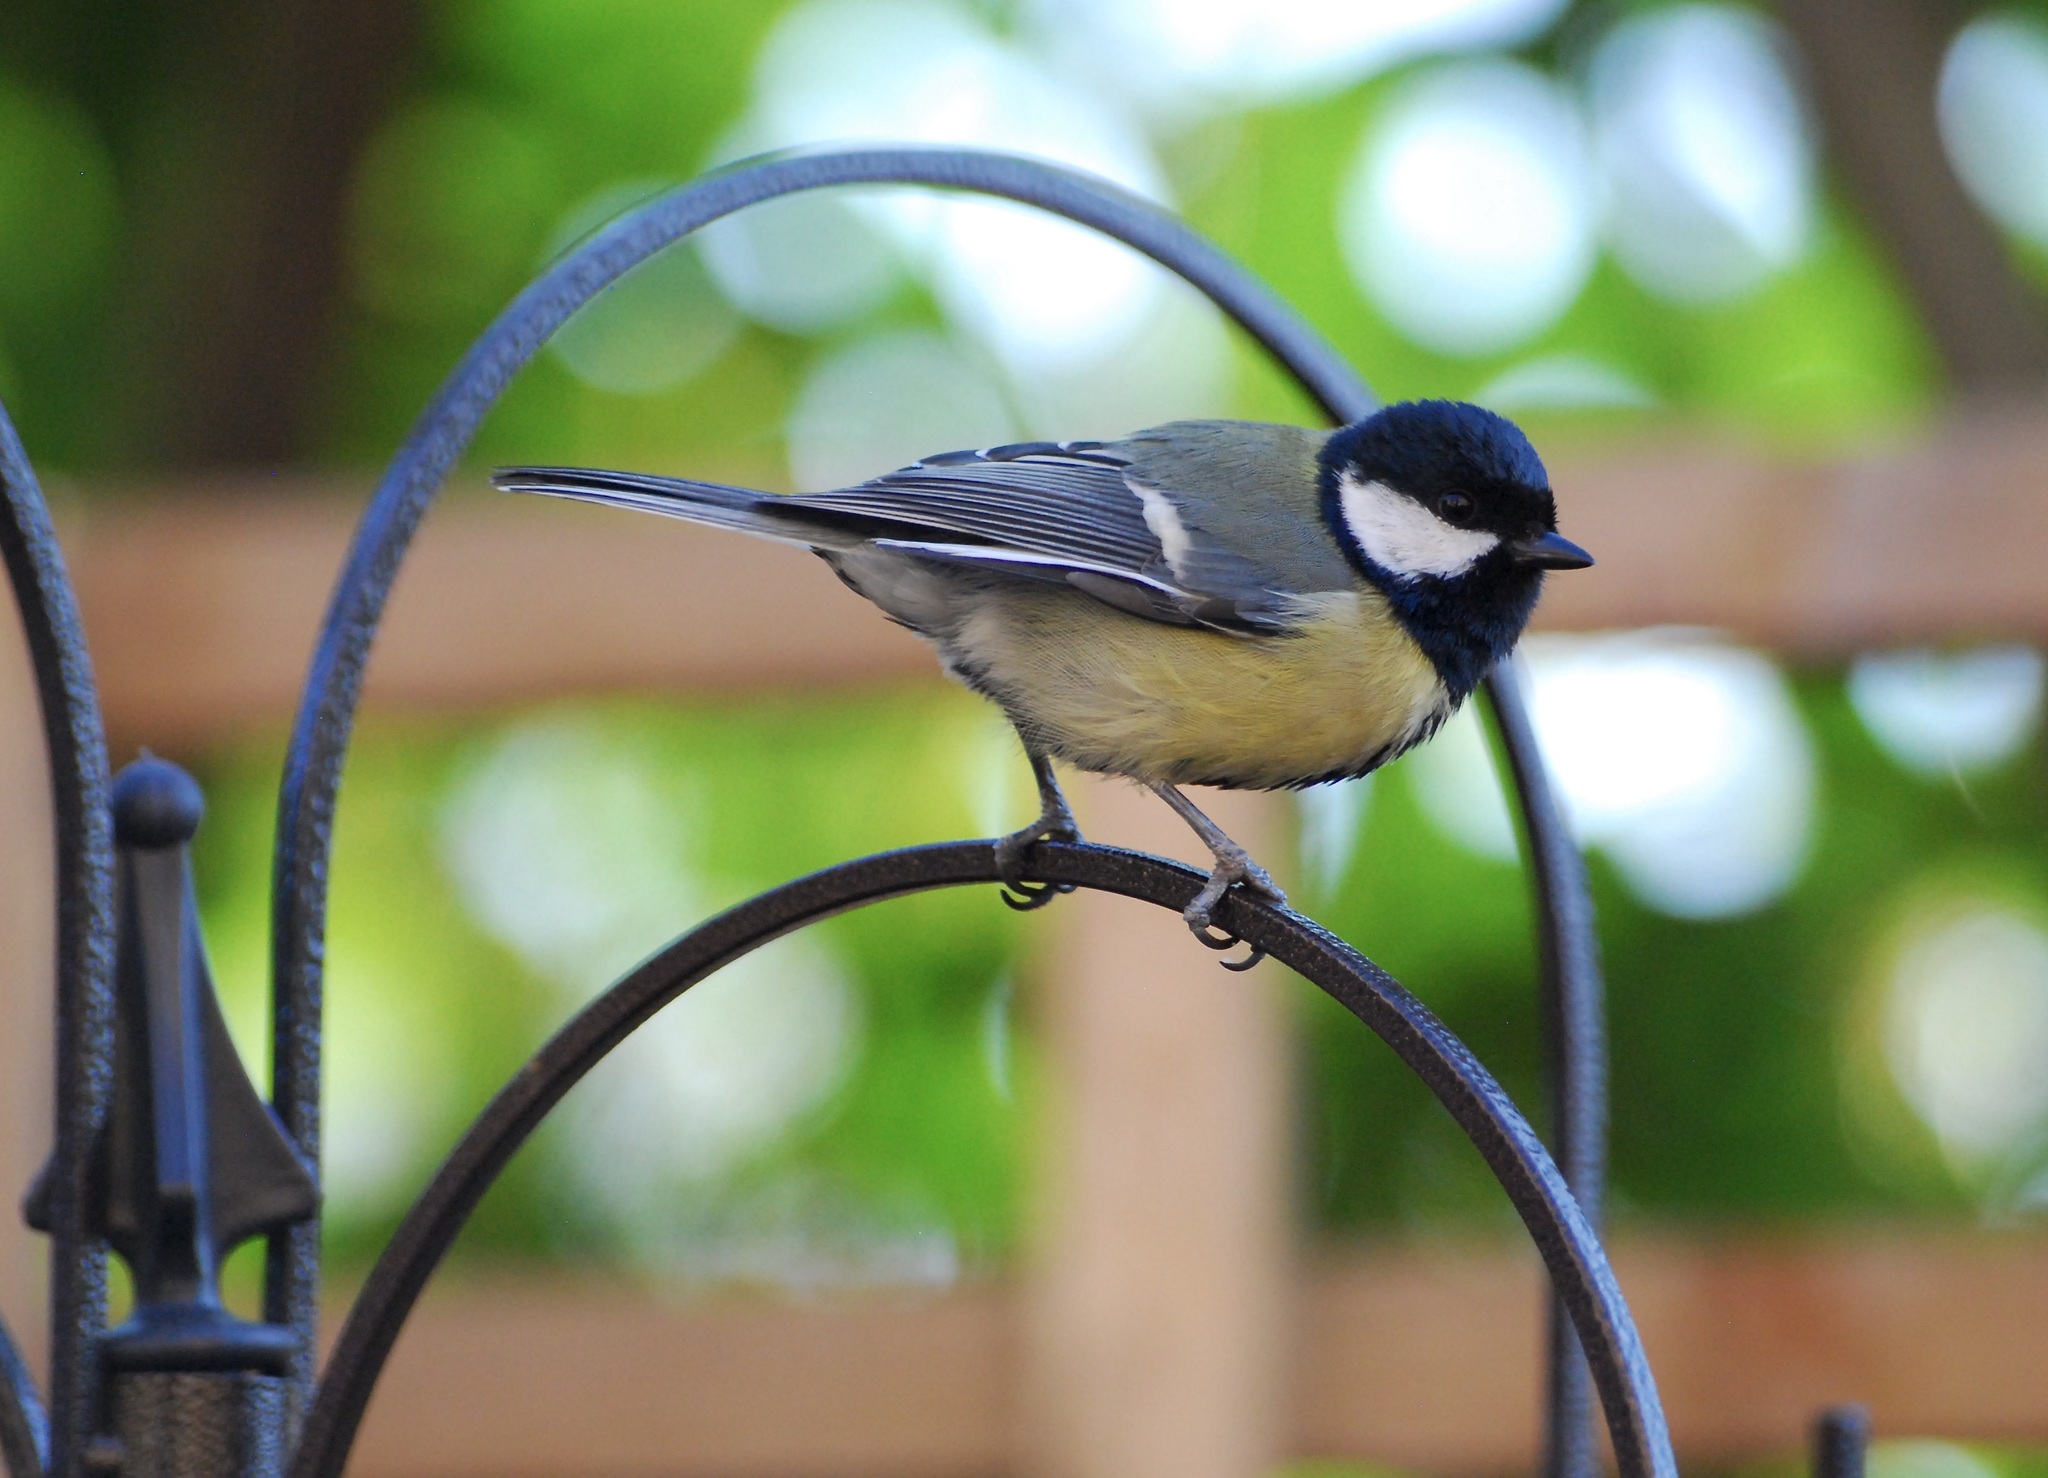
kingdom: Animalia
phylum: Chordata
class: Aves
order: Passeriformes
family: Paridae
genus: Parus
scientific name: Parus major
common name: Great tit
